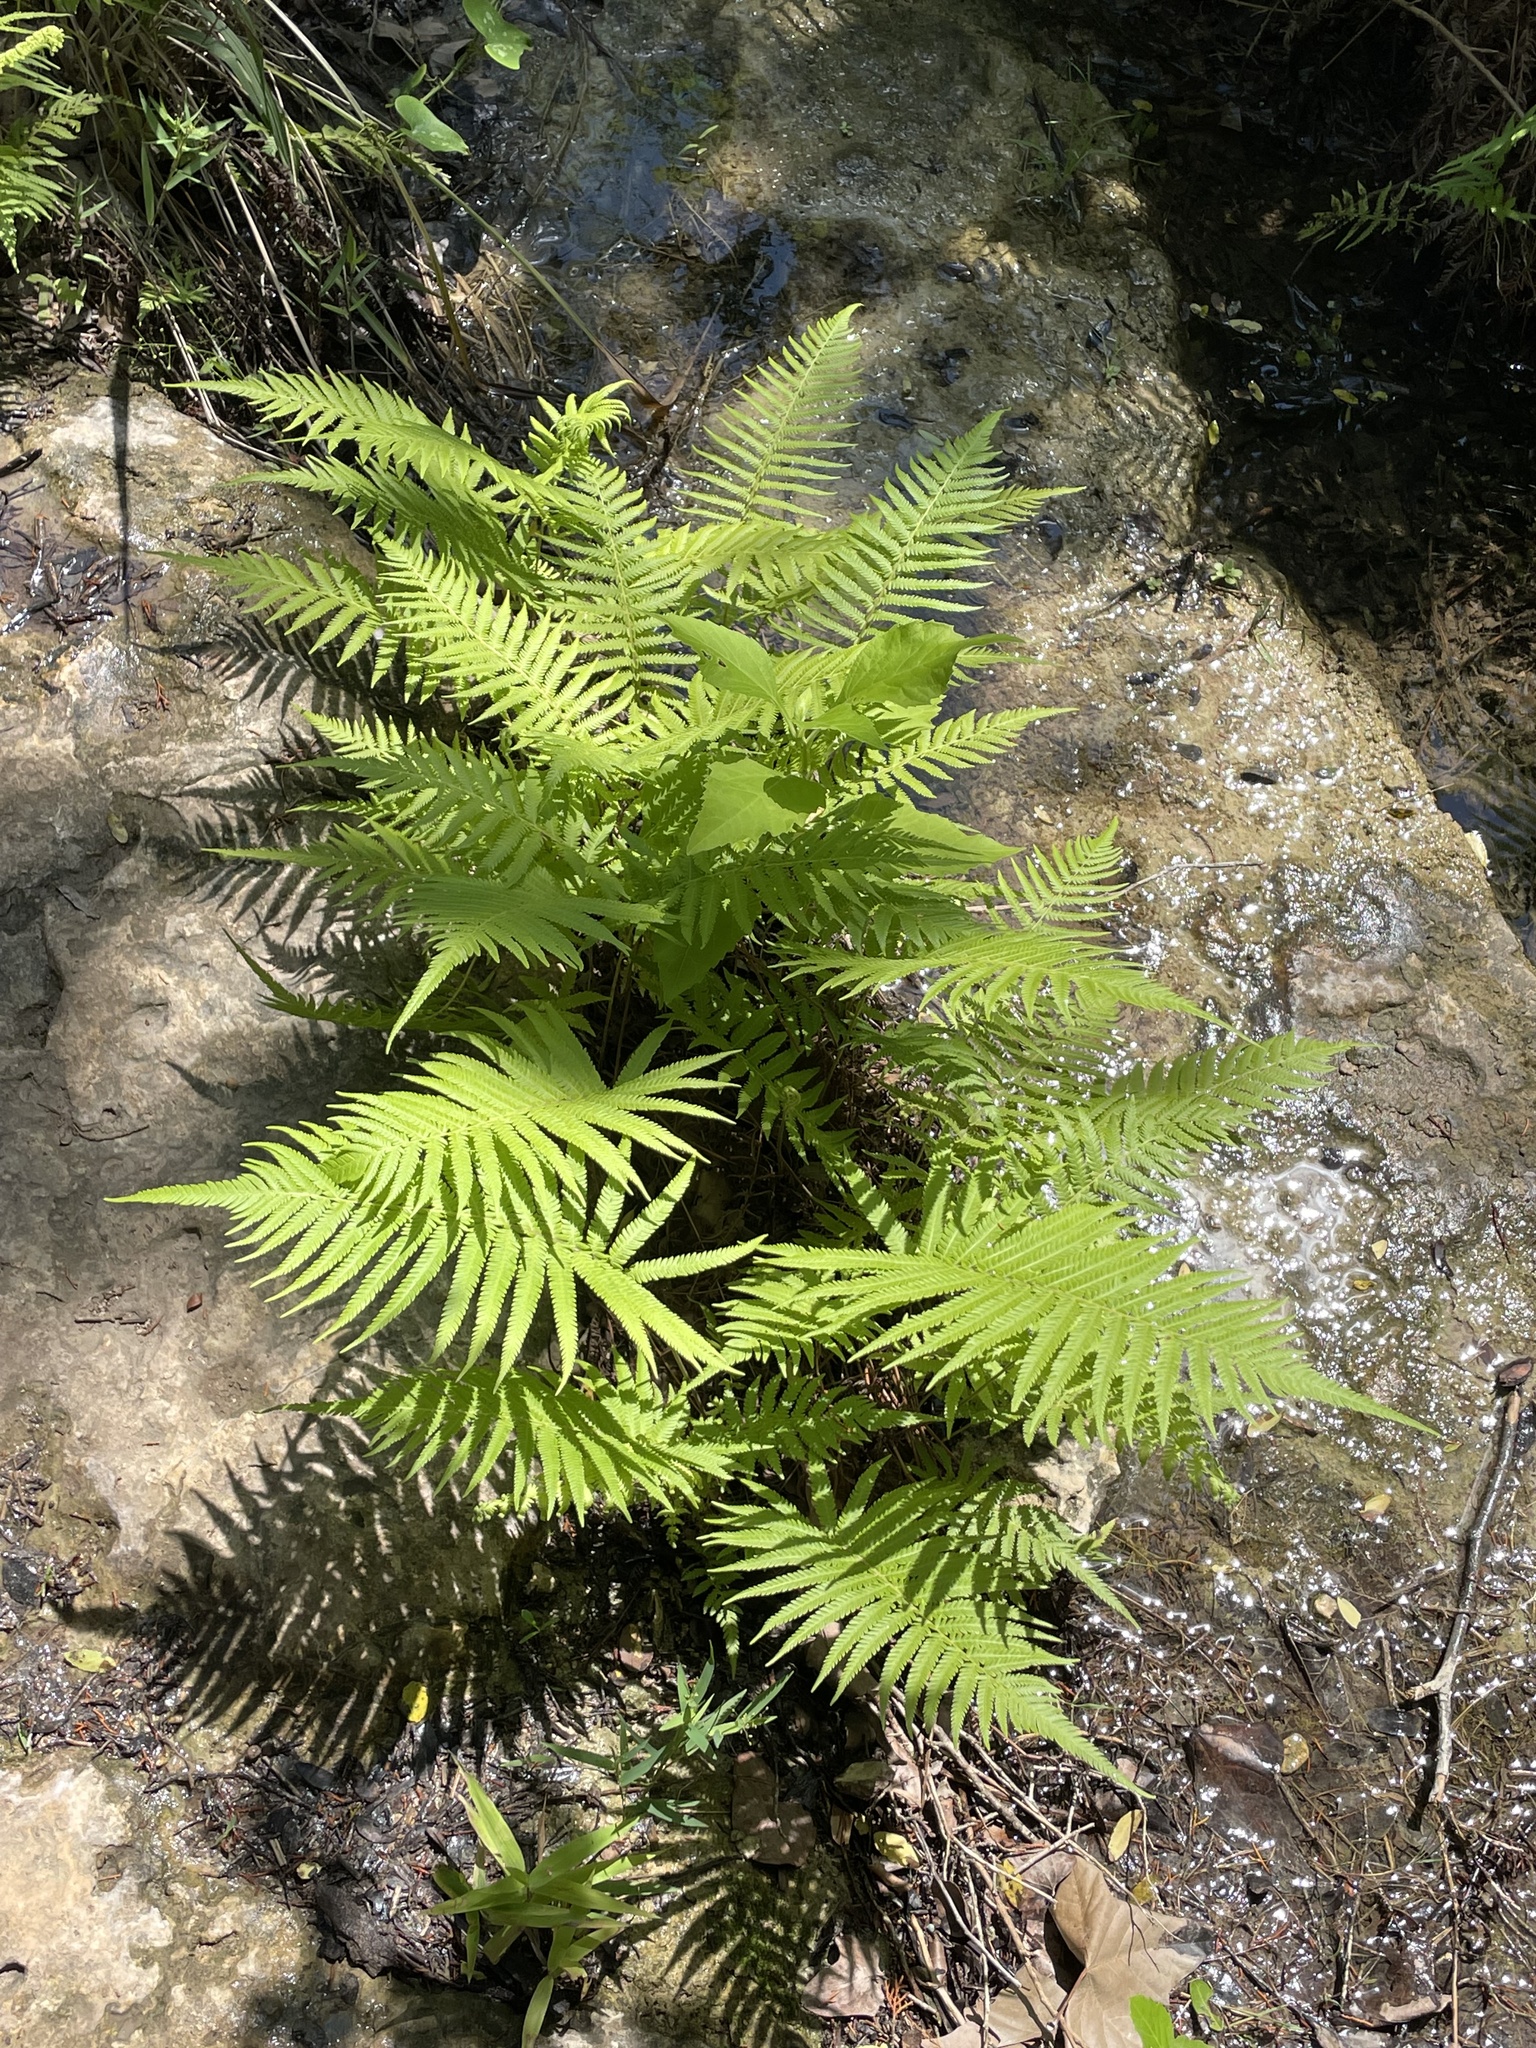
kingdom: Plantae
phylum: Tracheophyta
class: Polypodiopsida
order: Polypodiales
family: Thelypteridaceae
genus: Pelazoneuron
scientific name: Pelazoneuron ovatum
